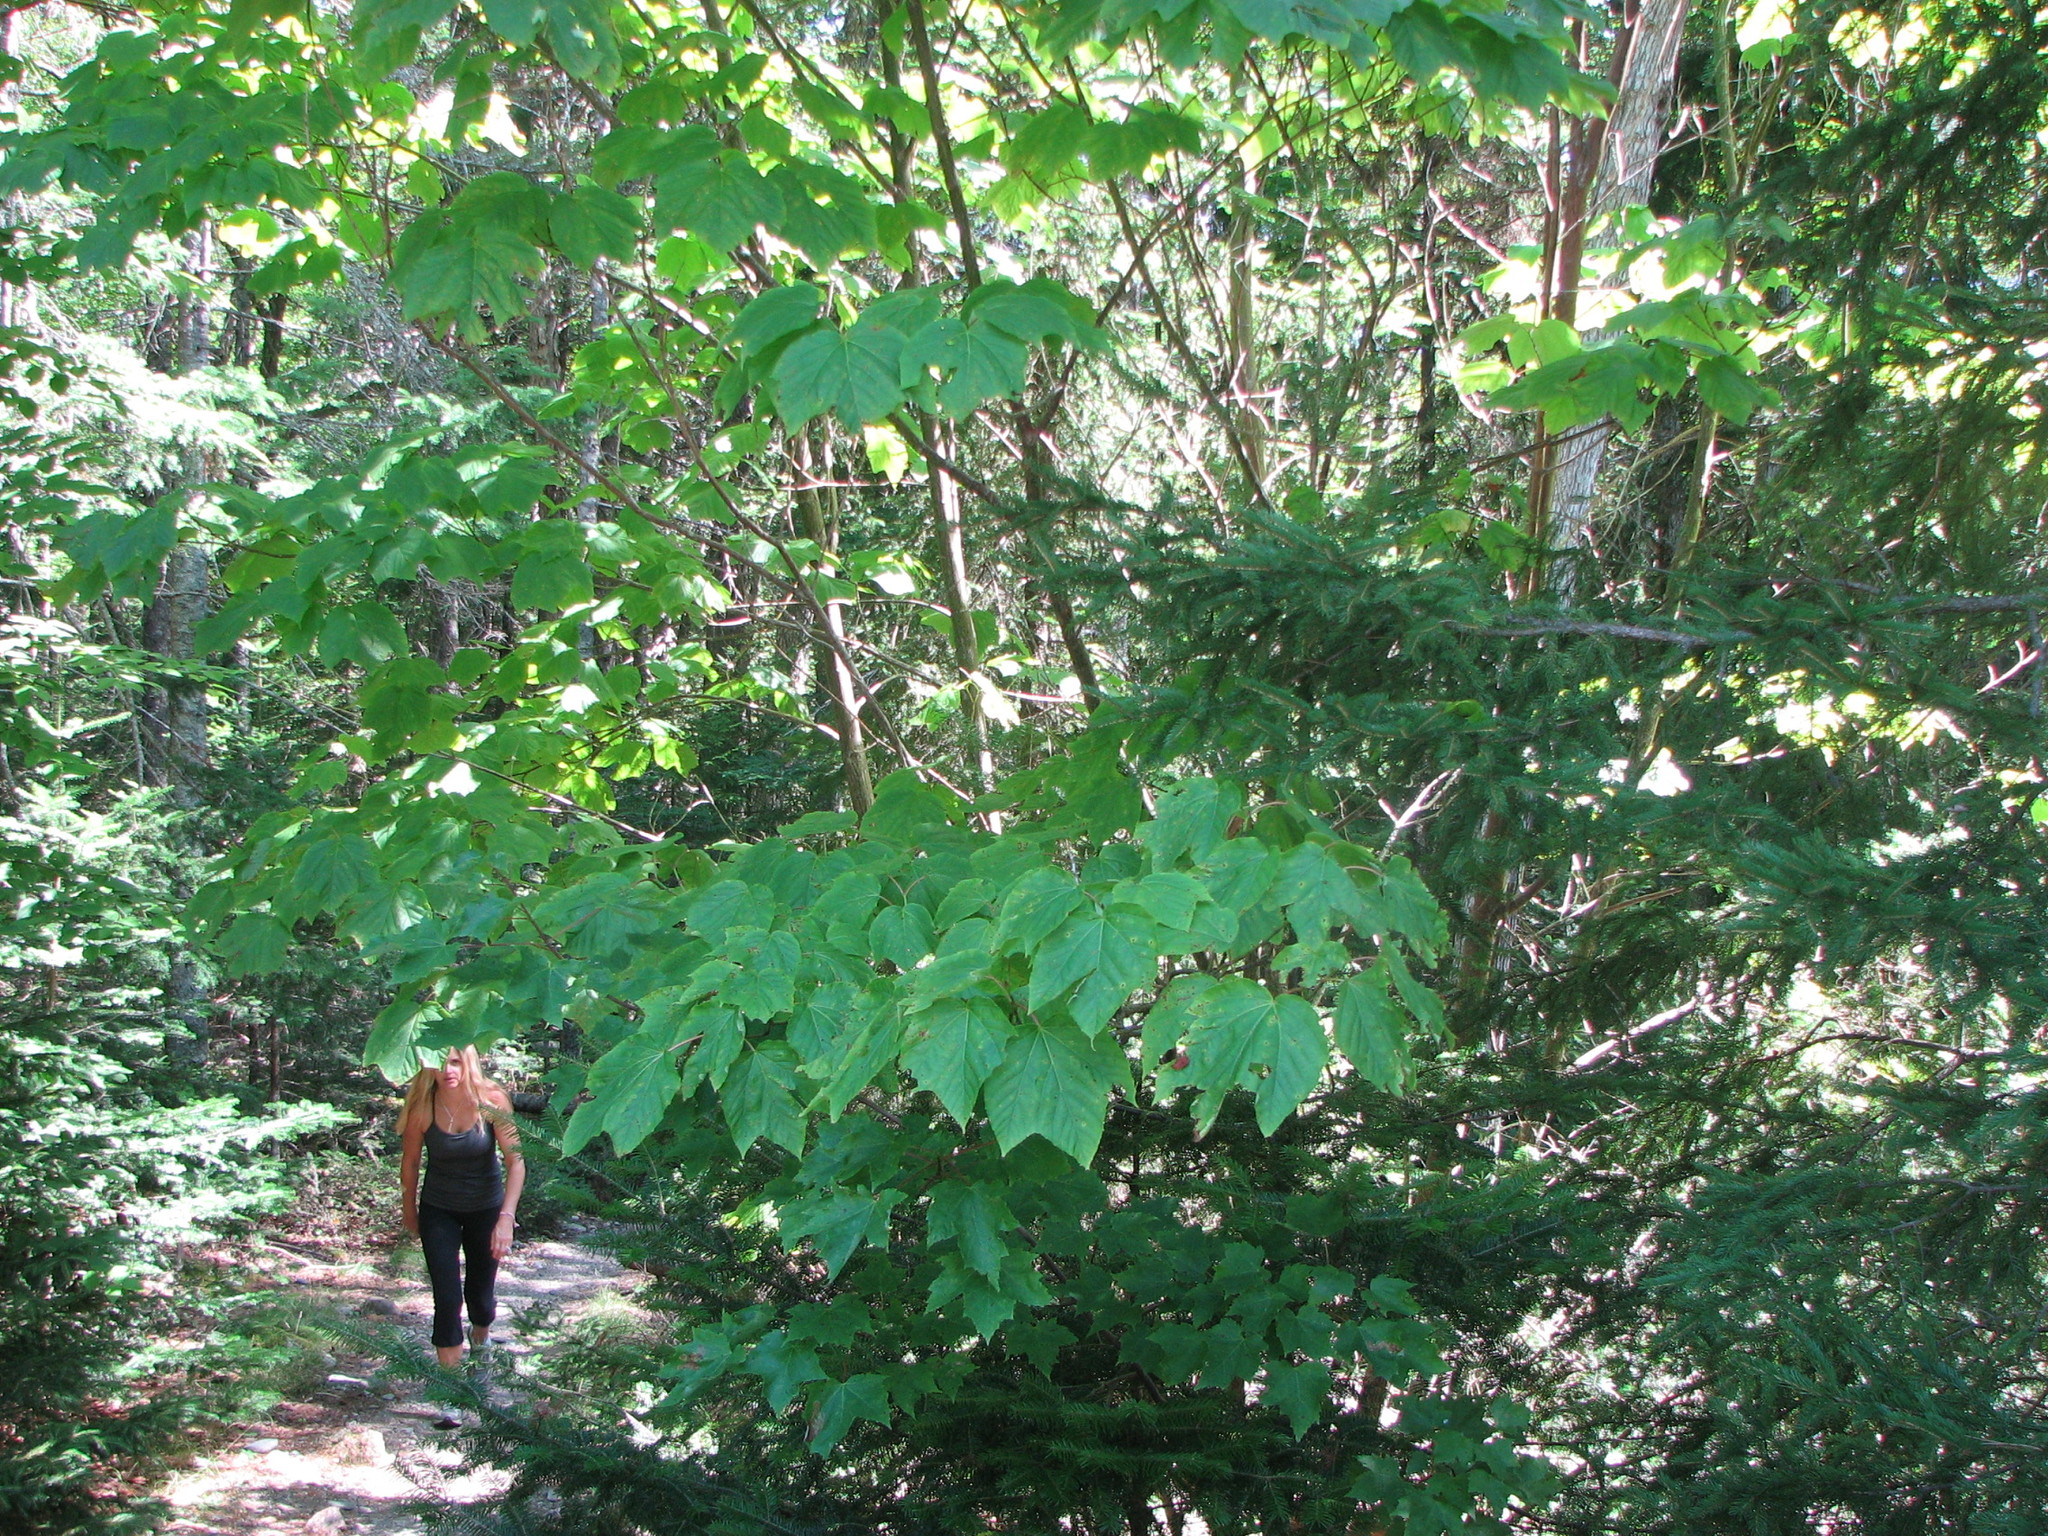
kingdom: Plantae
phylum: Tracheophyta
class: Magnoliopsida
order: Sapindales
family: Sapindaceae
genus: Acer
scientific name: Acer pensylvanicum
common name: Moosewood
